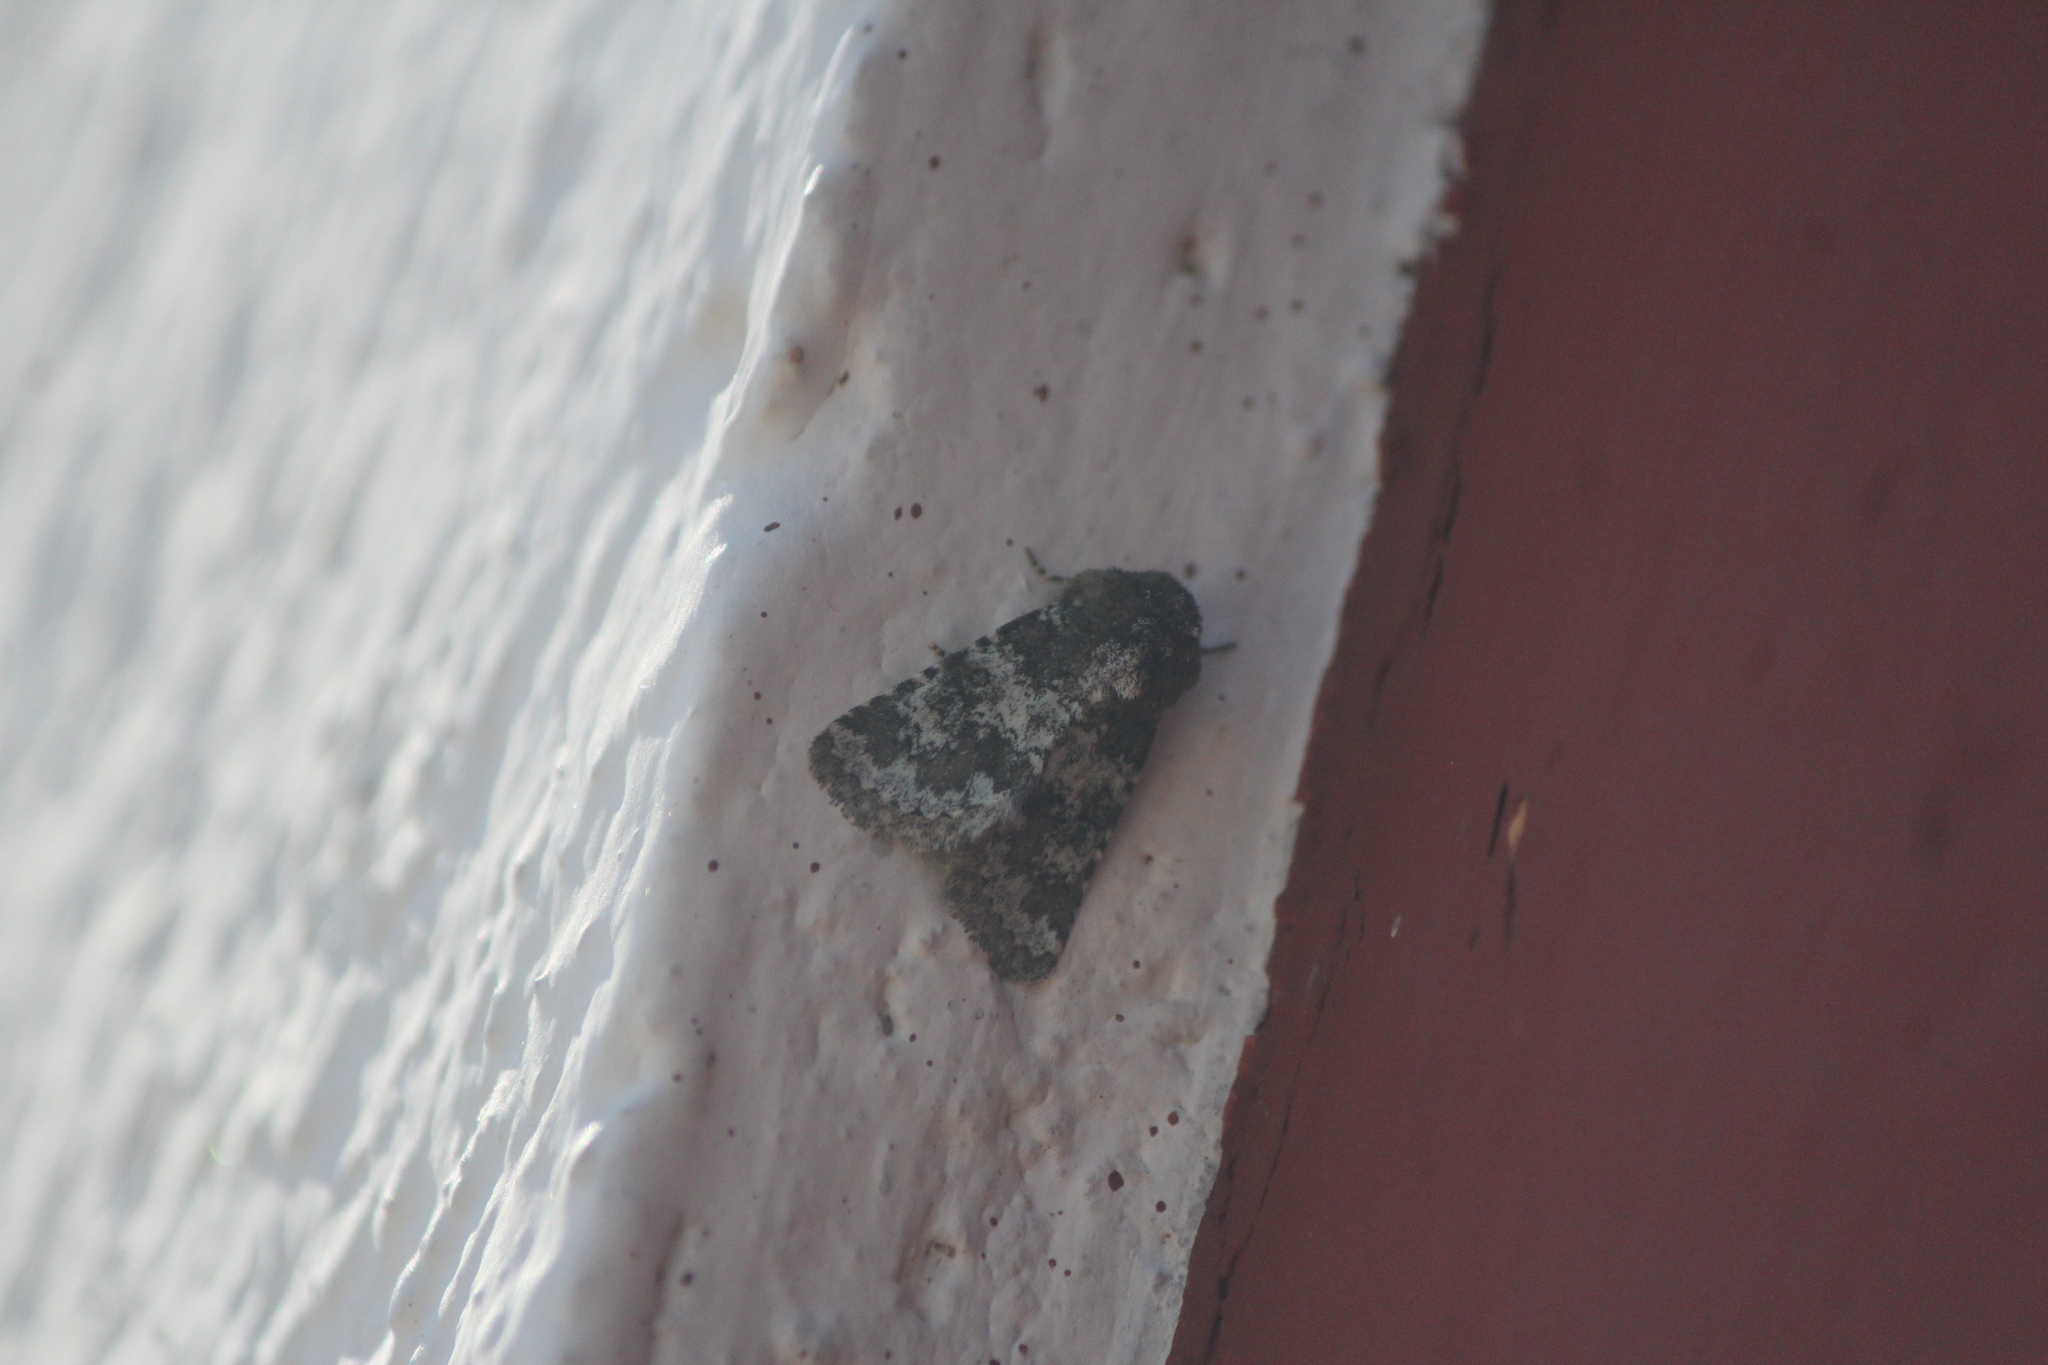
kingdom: Animalia
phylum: Arthropoda
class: Insecta
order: Lepidoptera
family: Noctuidae
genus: Hemibryomima
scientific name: Hemibryomima chryselectra
